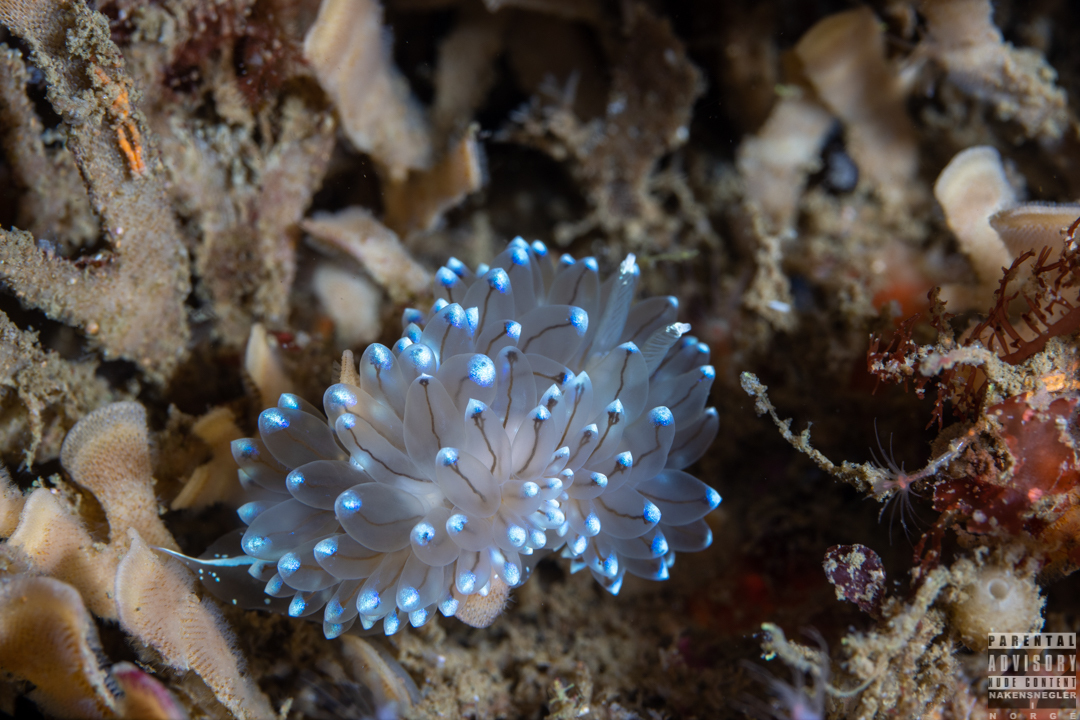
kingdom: Animalia
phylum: Mollusca
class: Gastropoda
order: Nudibranchia
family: Janolidae
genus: Antiopella
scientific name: Antiopella cristata
